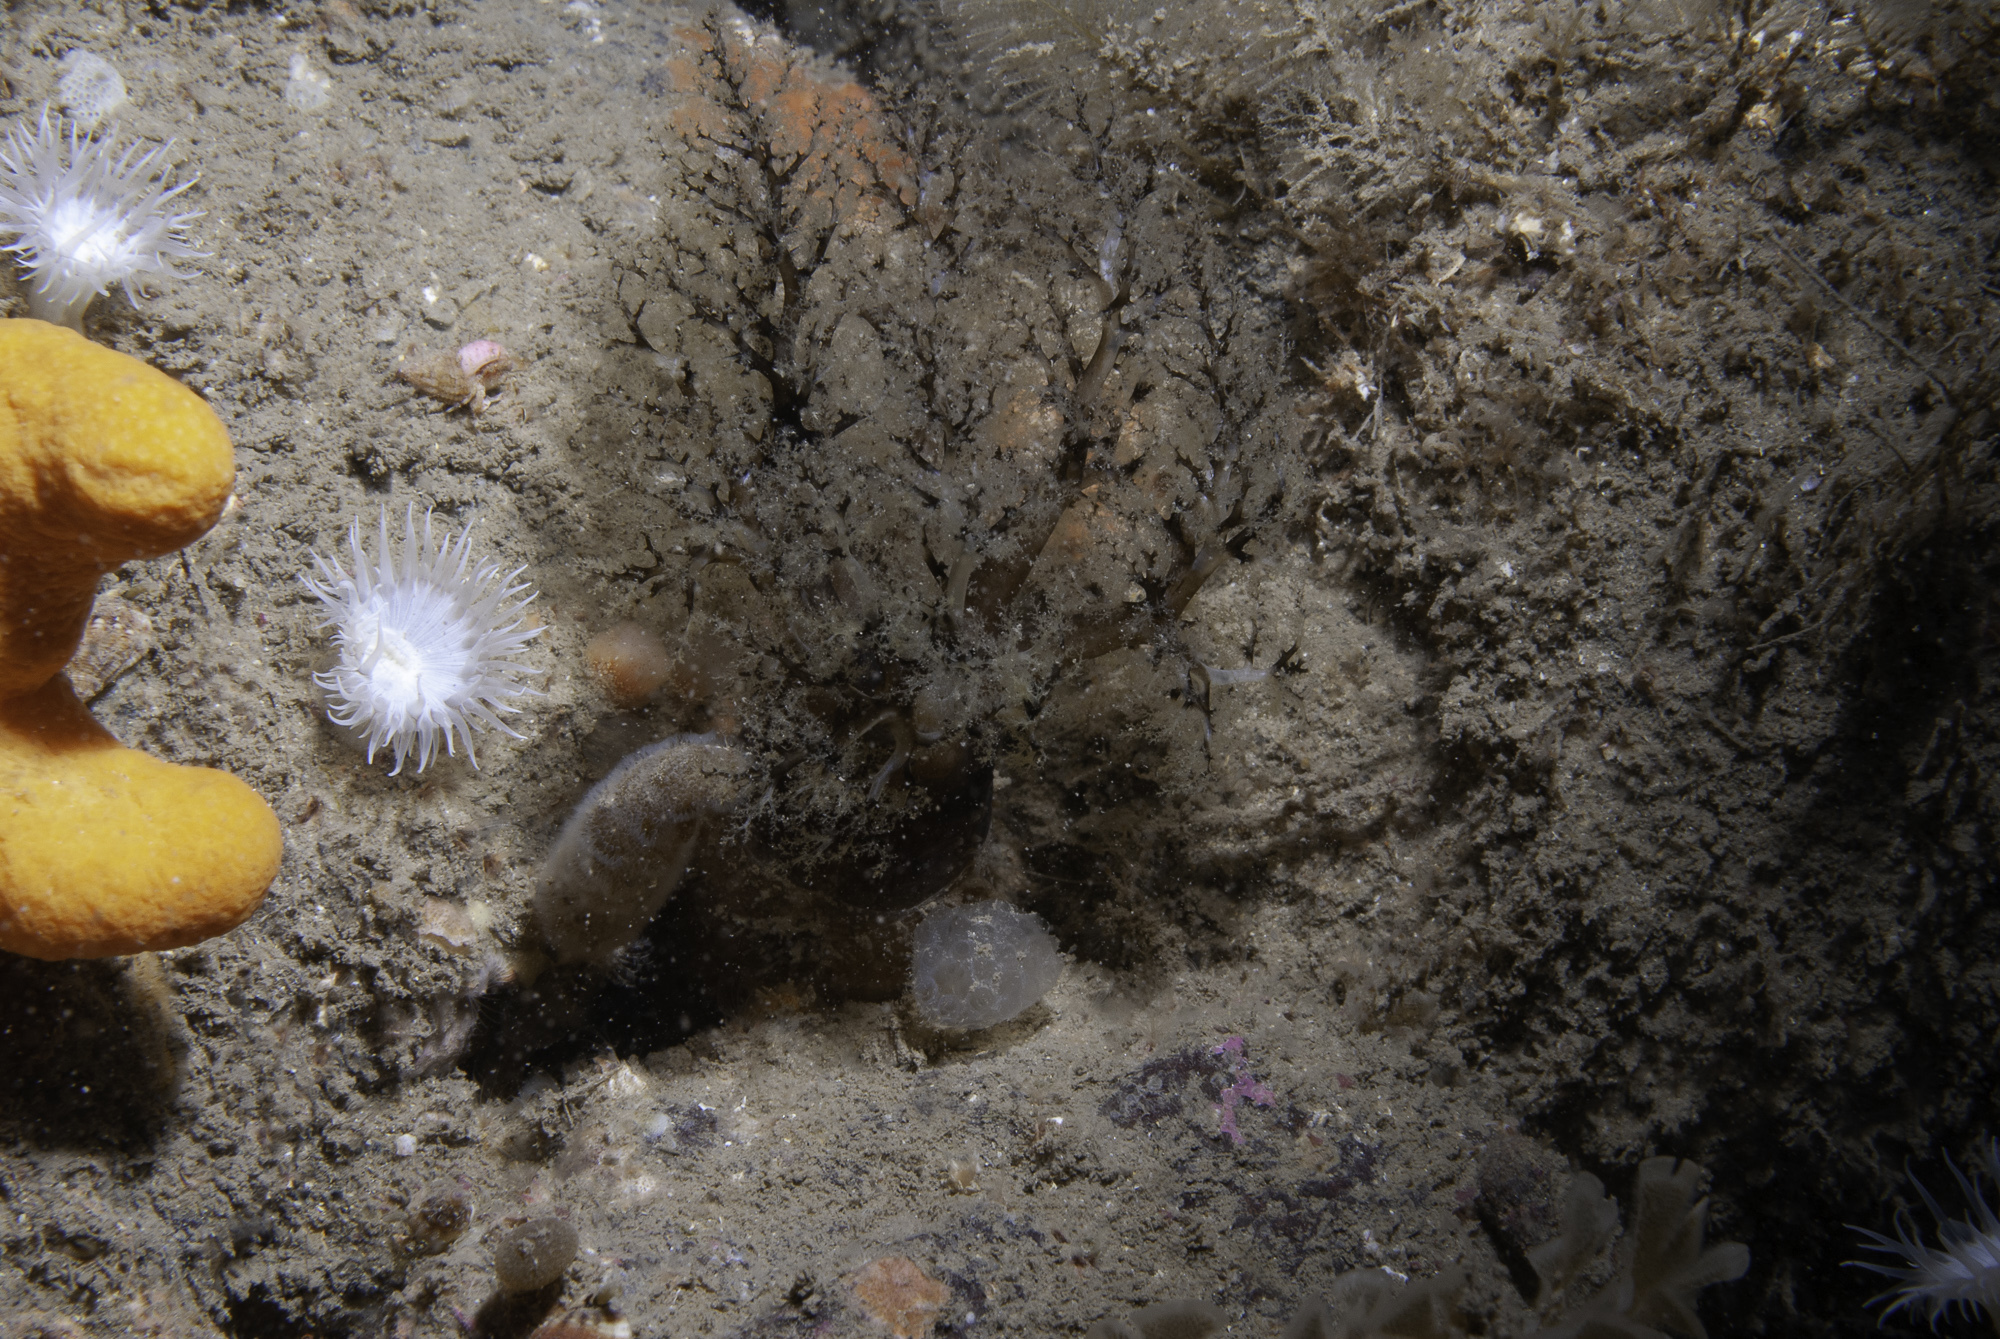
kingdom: Animalia
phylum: Echinodermata
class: Holothuroidea
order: Dendrochirotida
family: Cucumariidae
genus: Aslia
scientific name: Aslia lefevrei
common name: Brown sea cucumber
